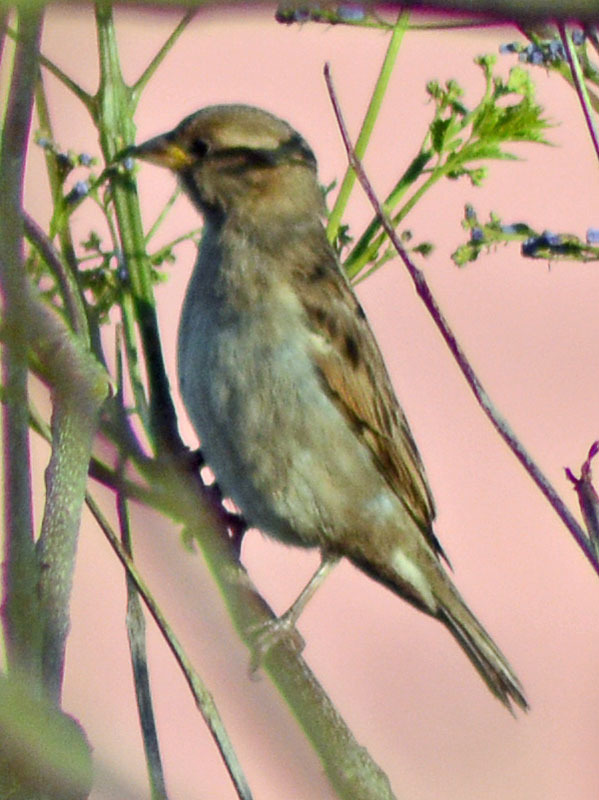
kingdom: Animalia
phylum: Chordata
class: Aves
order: Passeriformes
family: Passeridae
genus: Passer
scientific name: Passer domesticus
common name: House sparrow
